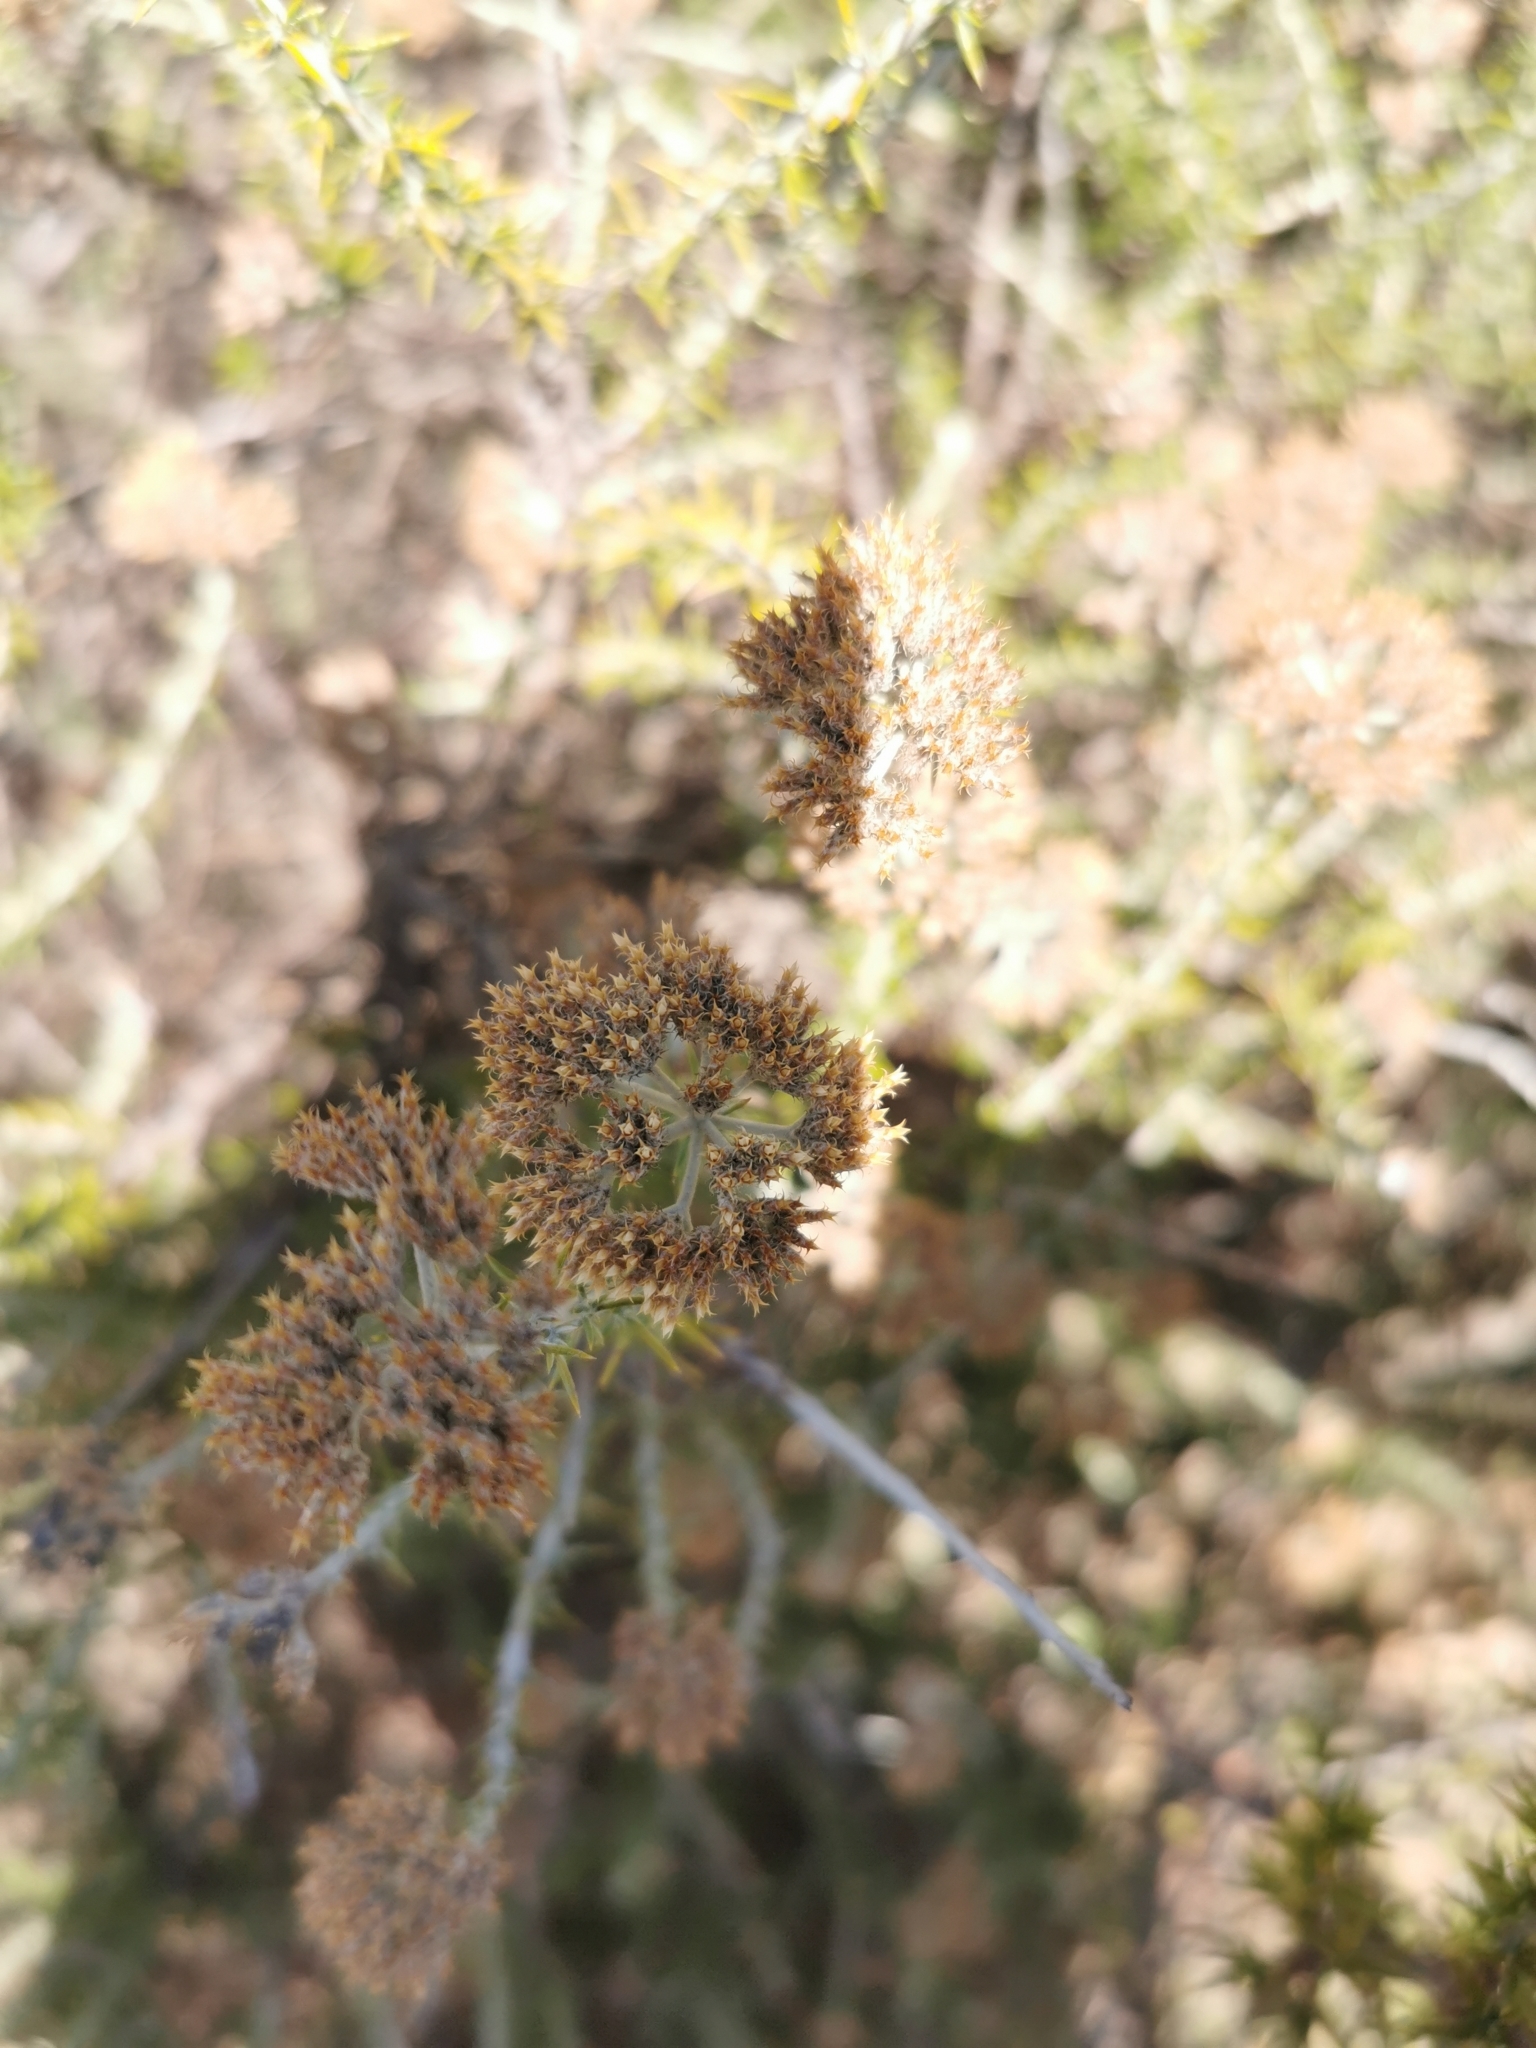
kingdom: Plantae
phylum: Tracheophyta
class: Magnoliopsida
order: Asterales
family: Asteraceae
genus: Metalasia
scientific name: Metalasia dregeana
